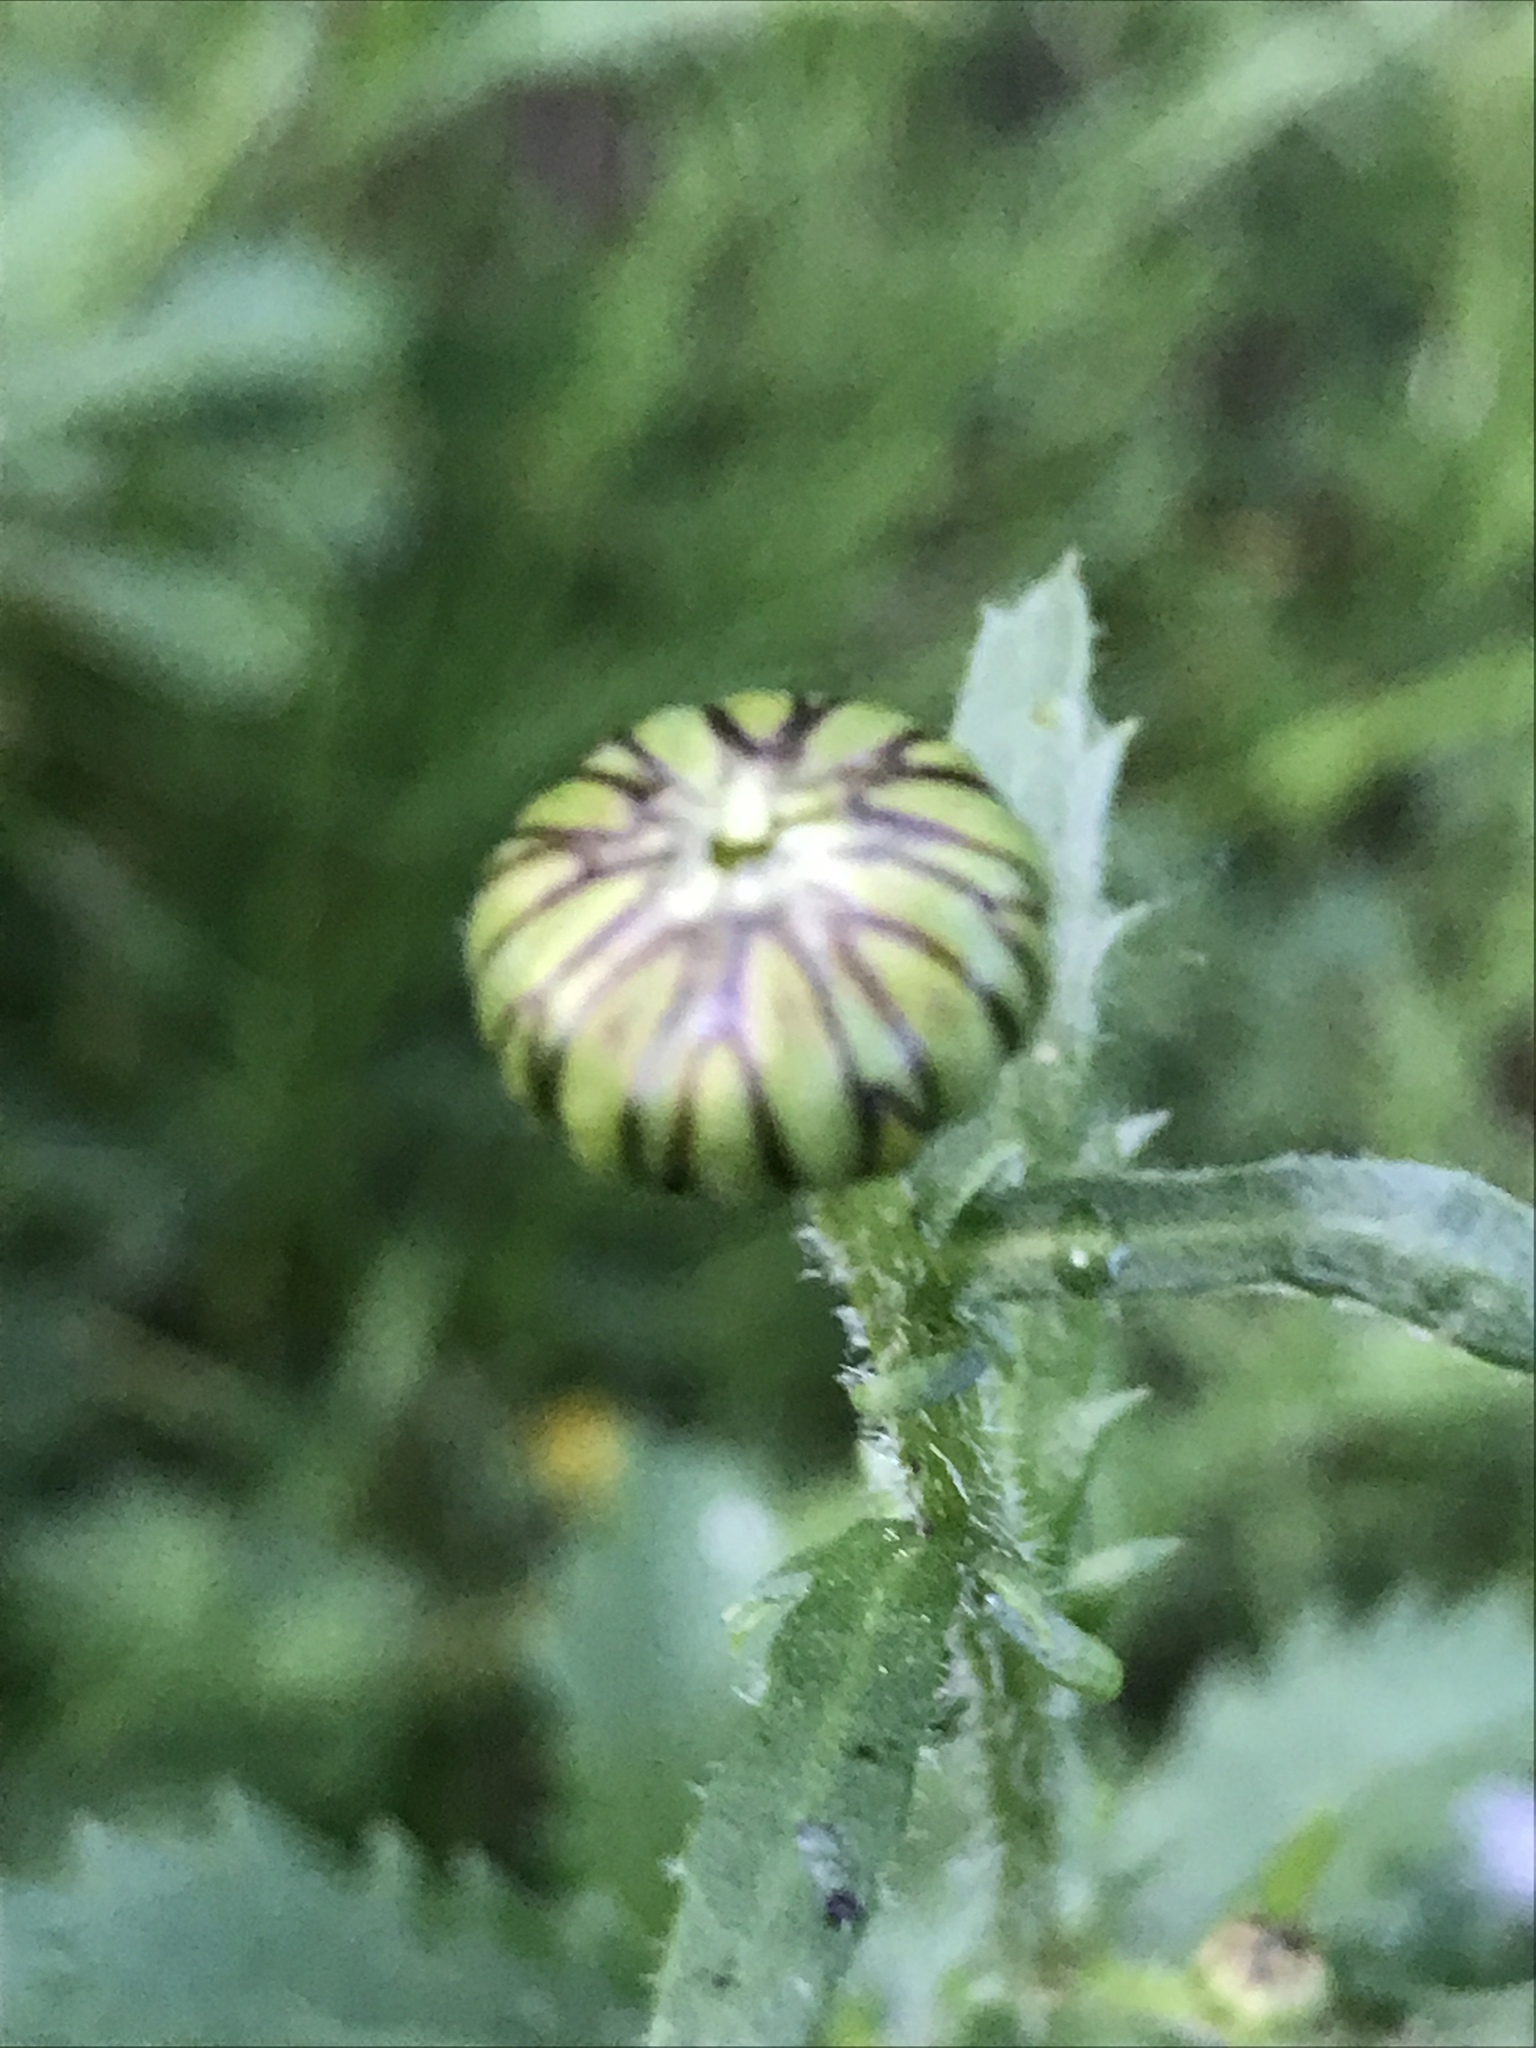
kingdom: Plantae
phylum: Tracheophyta
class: Magnoliopsida
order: Asterales
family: Asteraceae
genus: Leucanthemum
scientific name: Leucanthemum vulgare
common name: Oxeye daisy
